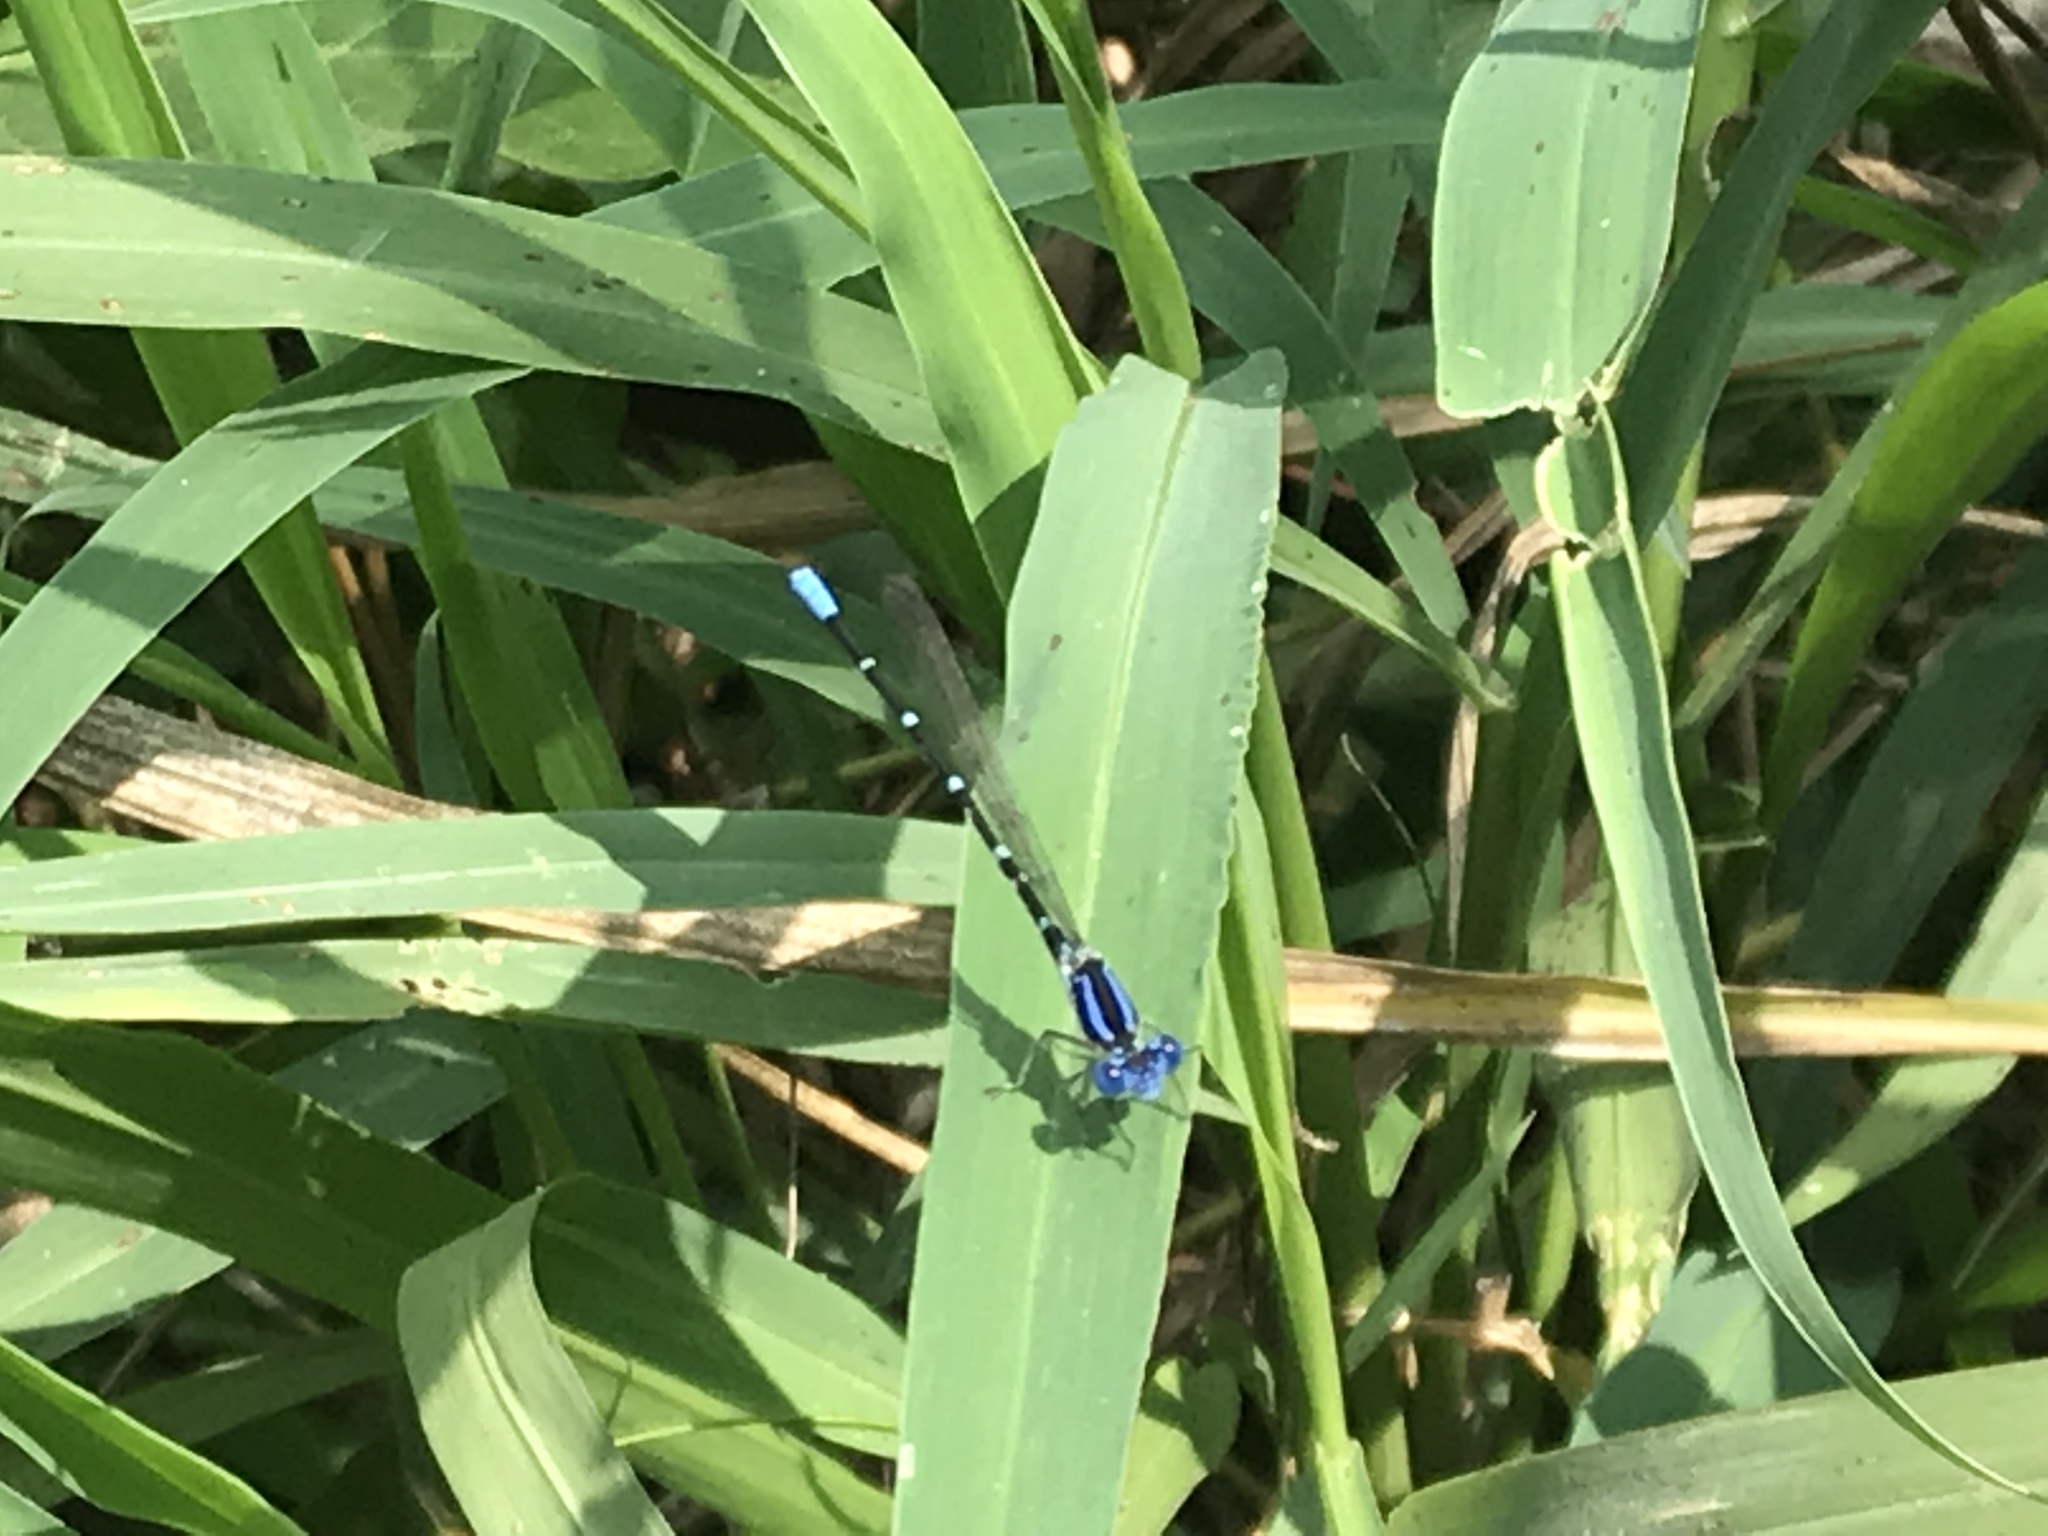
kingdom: Animalia
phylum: Arthropoda
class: Insecta
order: Odonata
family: Coenagrionidae
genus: Argia
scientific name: Argia sedula
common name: Blue-ringed dancer
